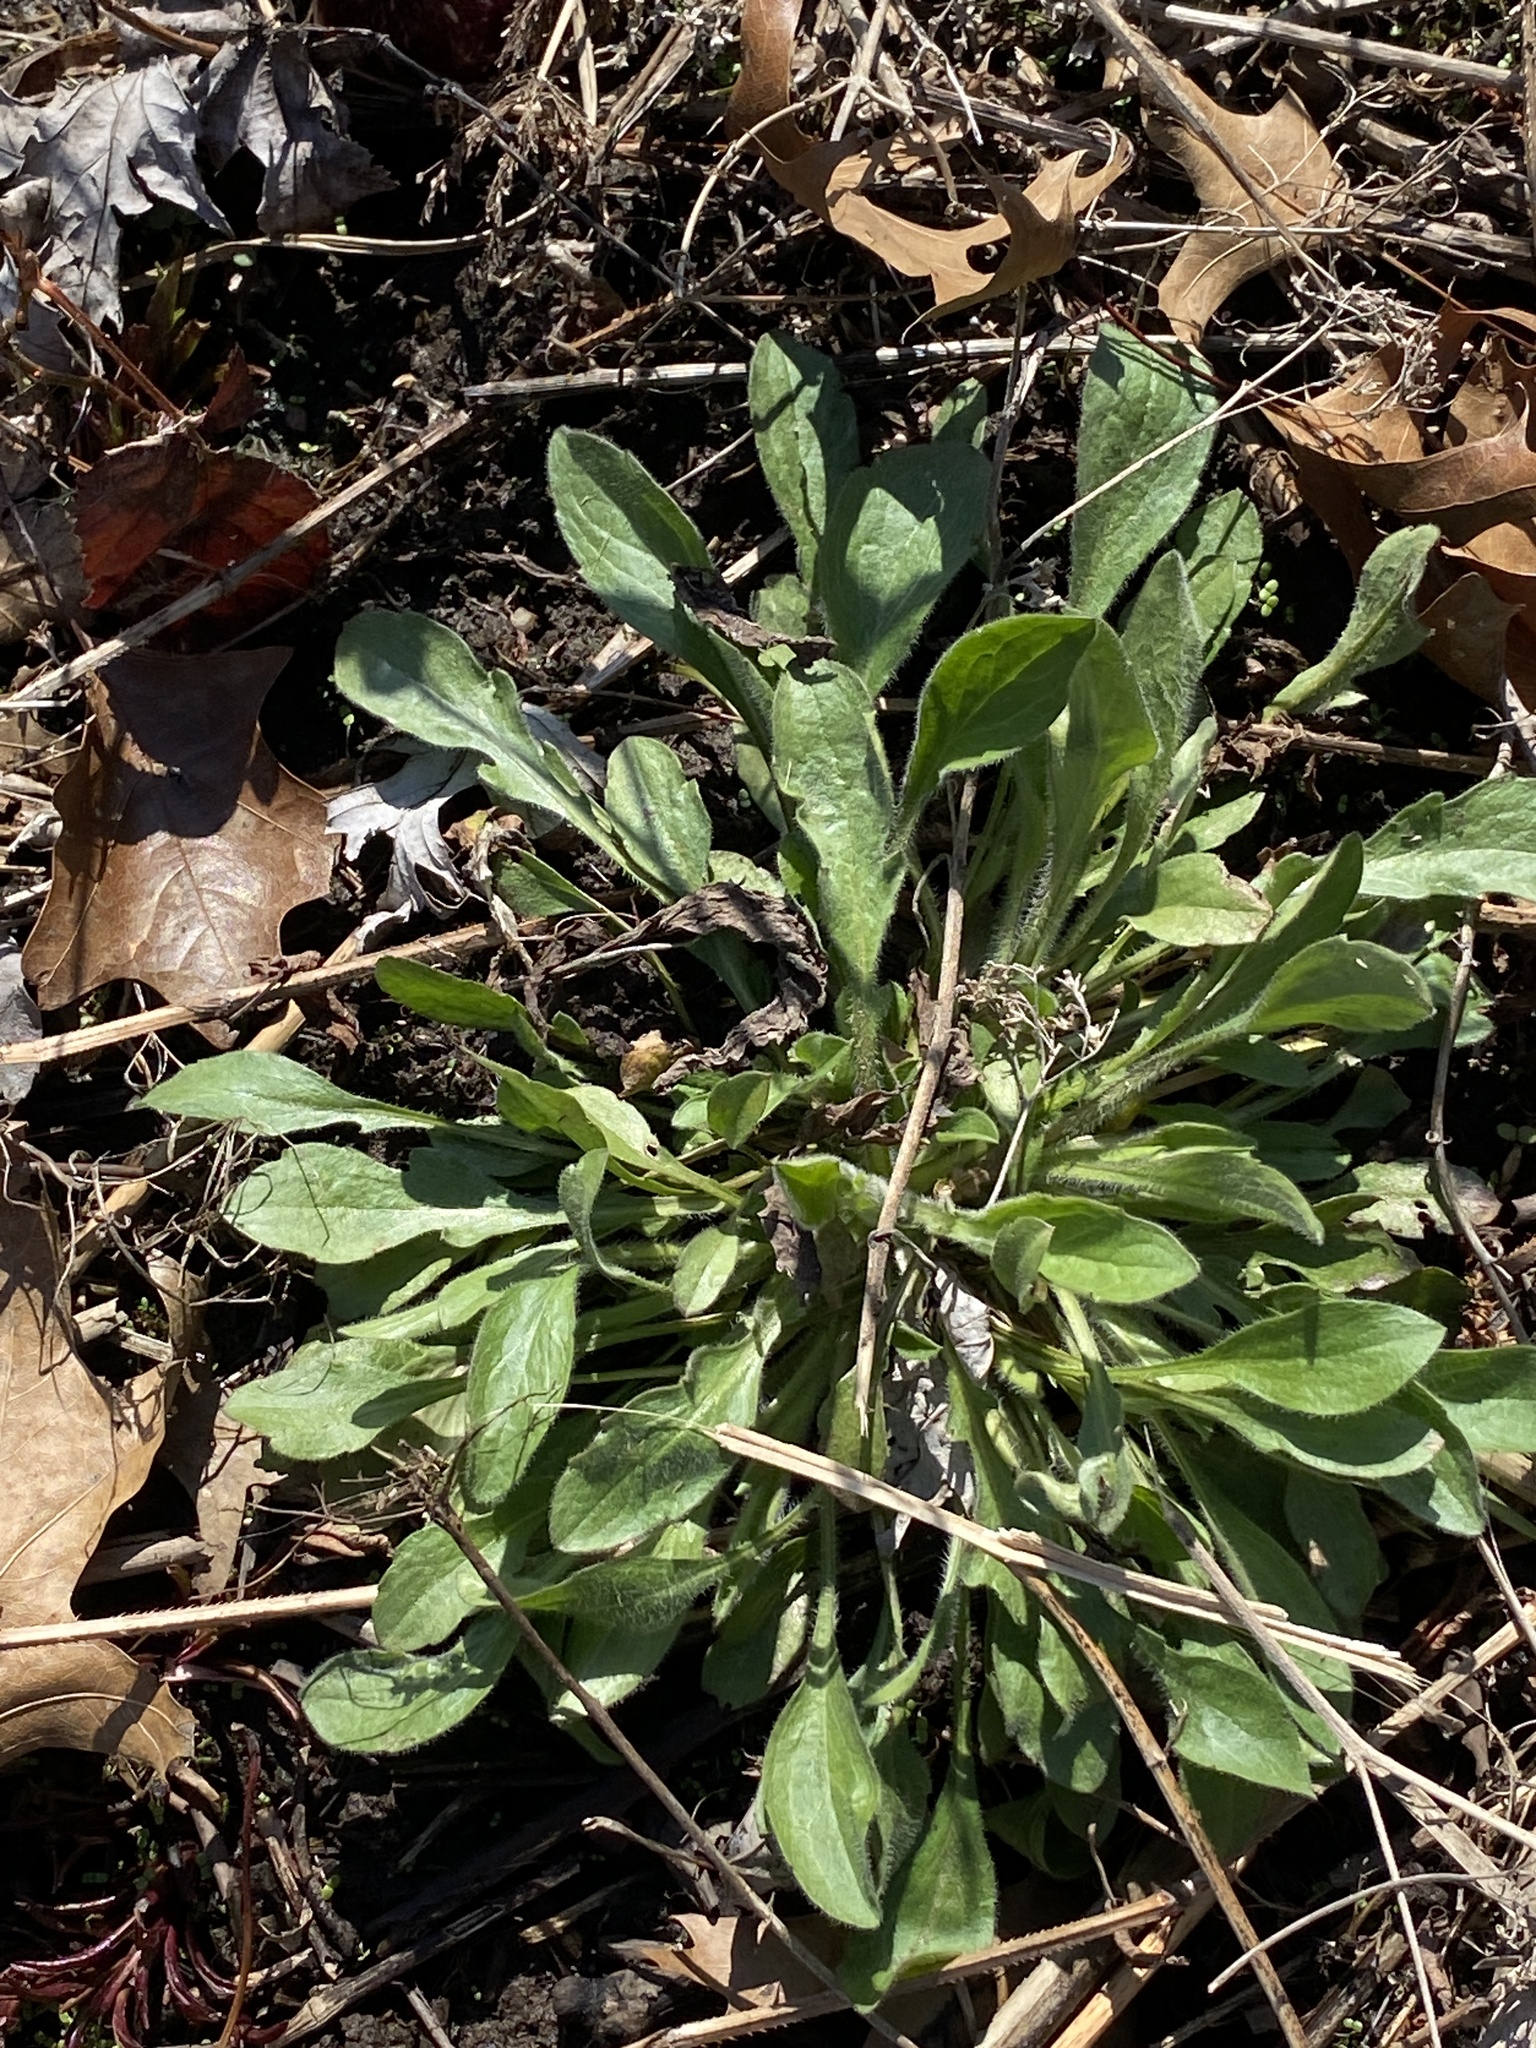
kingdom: Plantae
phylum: Tracheophyta
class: Magnoliopsida
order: Asterales
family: Asteraceae
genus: Erigeron
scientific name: Erigeron canadensis
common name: Canadian fleabane
